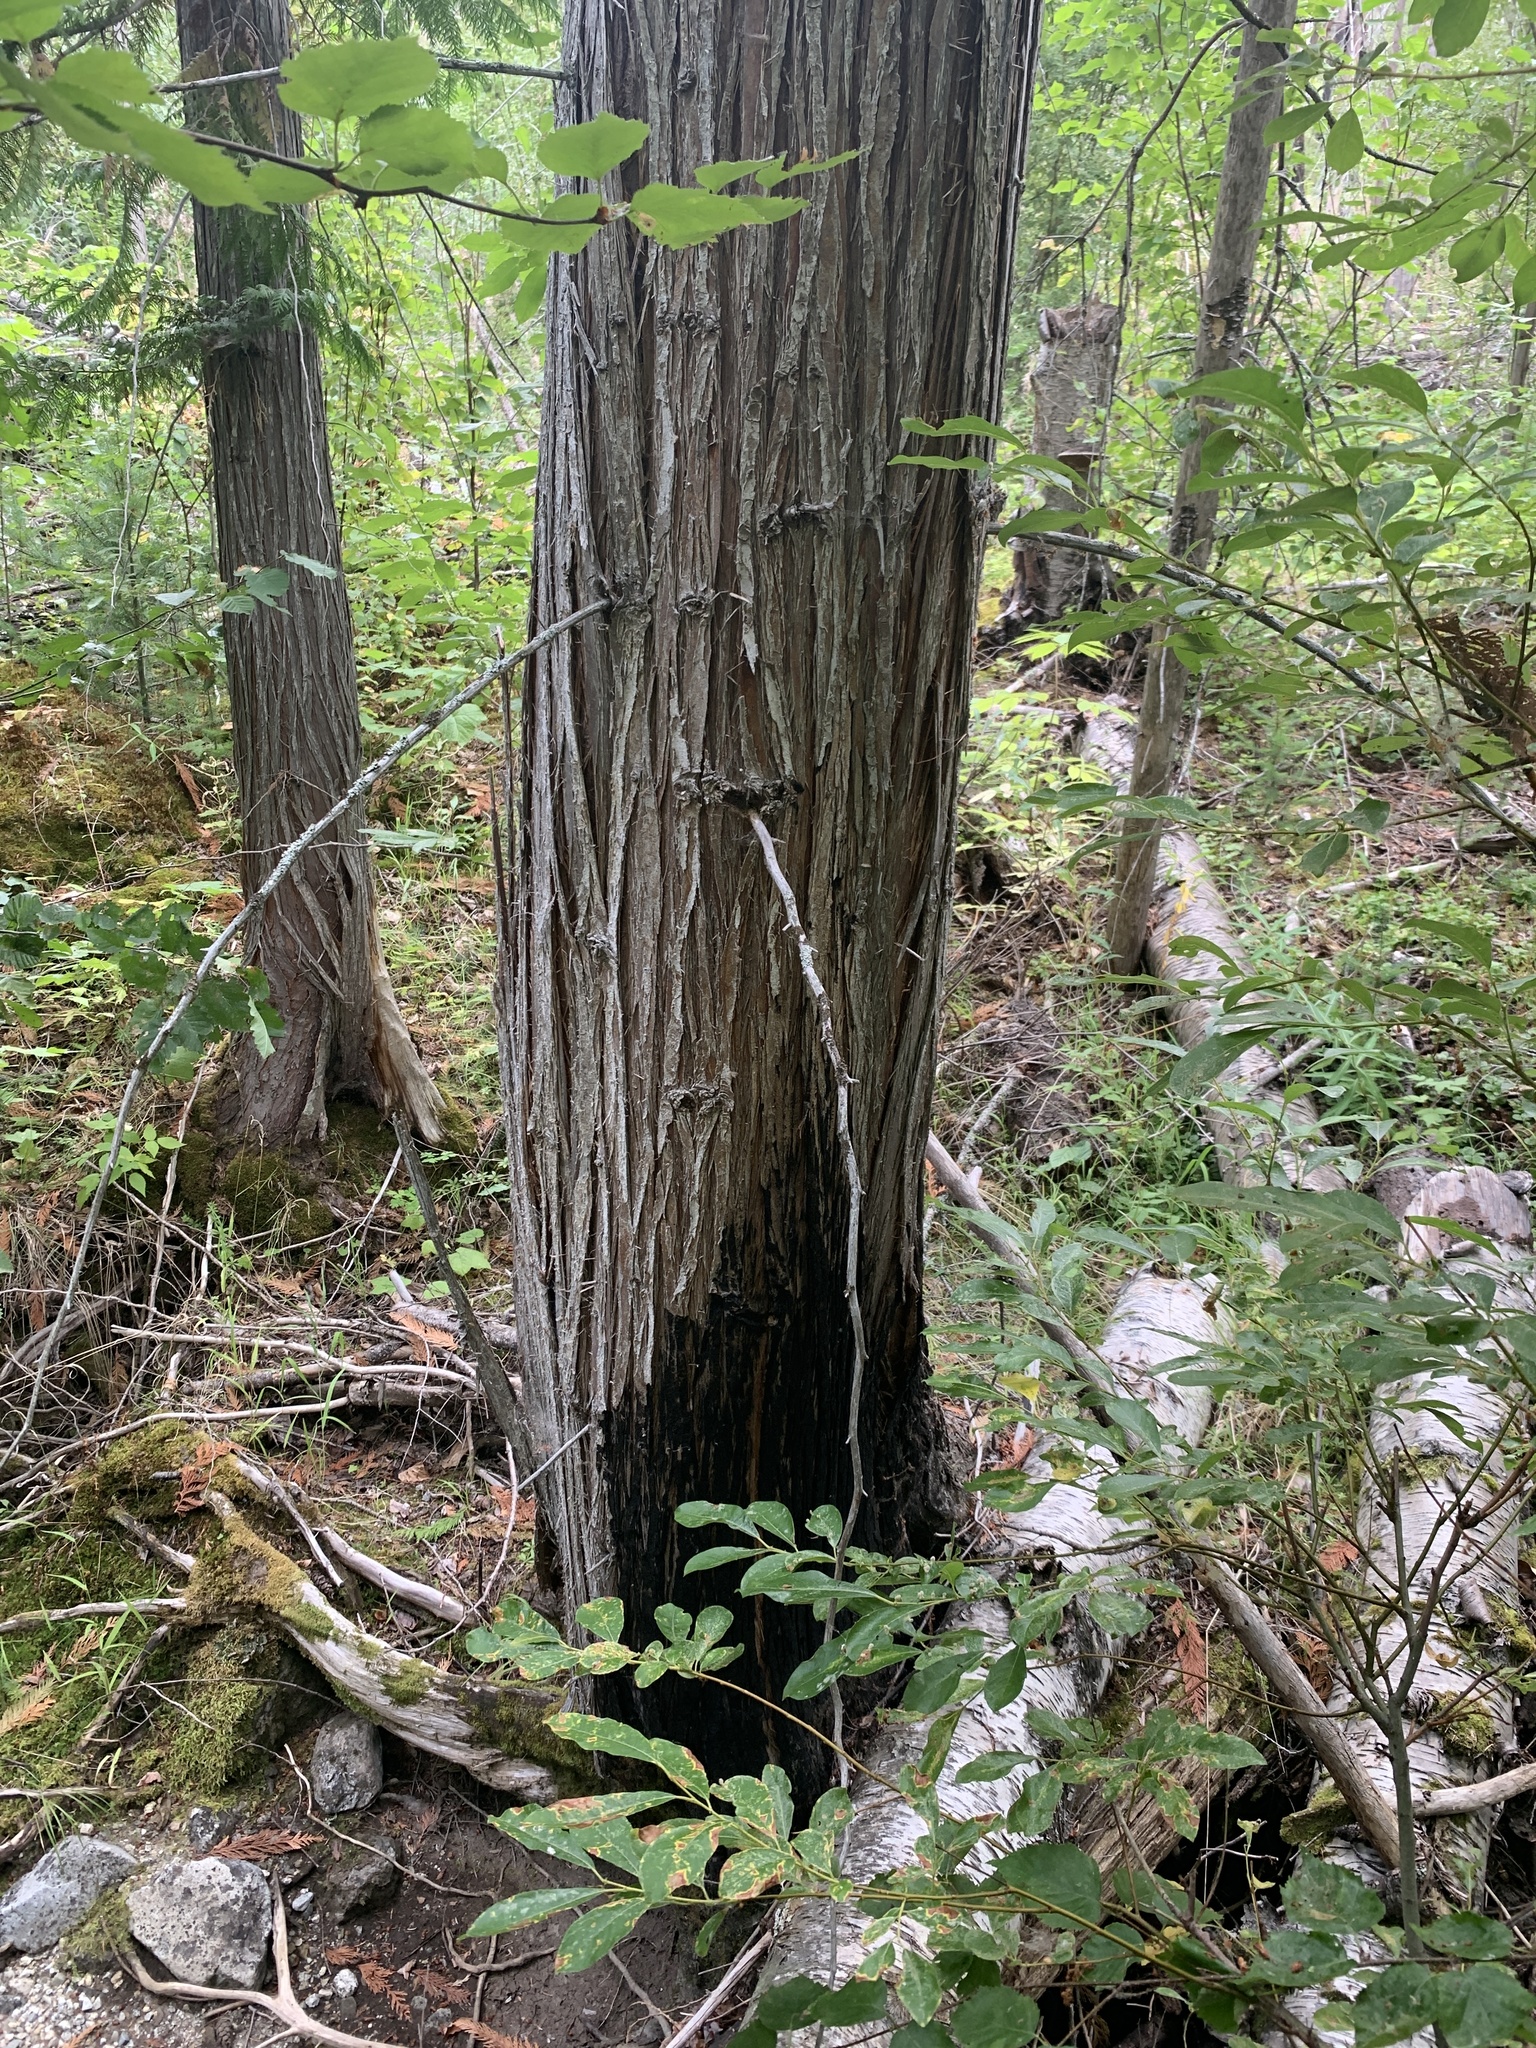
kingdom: Plantae
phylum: Tracheophyta
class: Pinopsida
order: Pinales
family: Cupressaceae
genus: Thuja
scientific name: Thuja plicata
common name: Western red-cedar
